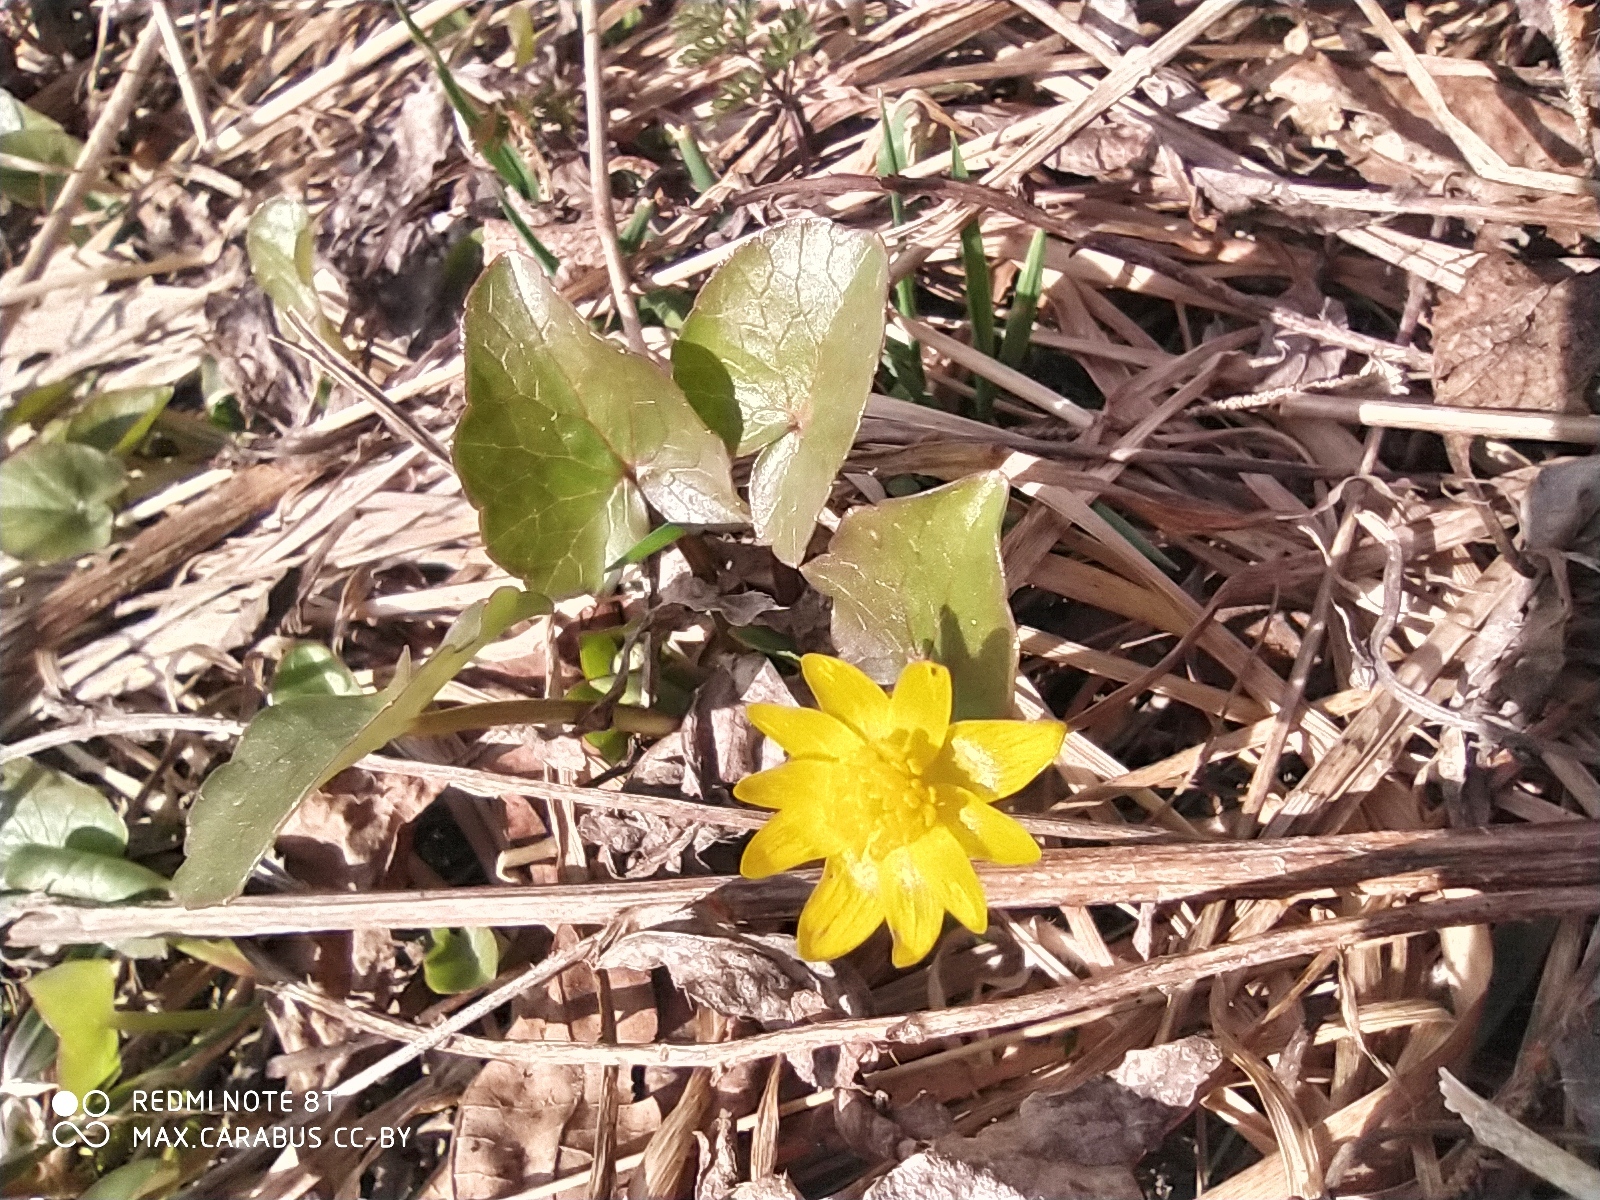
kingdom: Plantae
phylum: Tracheophyta
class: Magnoliopsida
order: Ranunculales
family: Ranunculaceae
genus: Ficaria
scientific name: Ficaria verna
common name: Lesser celandine
